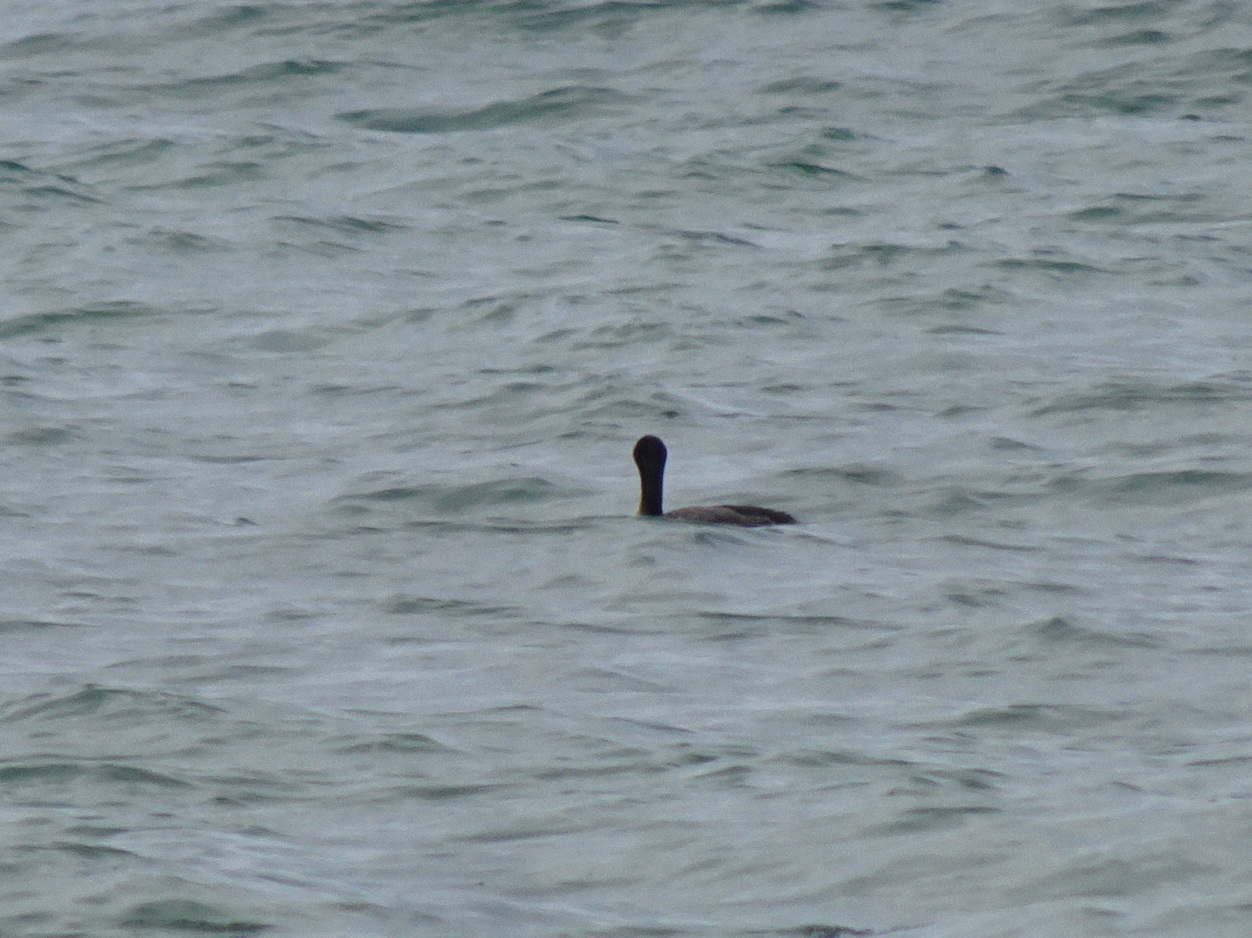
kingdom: Animalia
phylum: Chordata
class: Aves
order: Suliformes
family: Phalacrocoracidae
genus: Phalacrocorax
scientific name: Phalacrocorax auritus
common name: Double-crested cormorant
